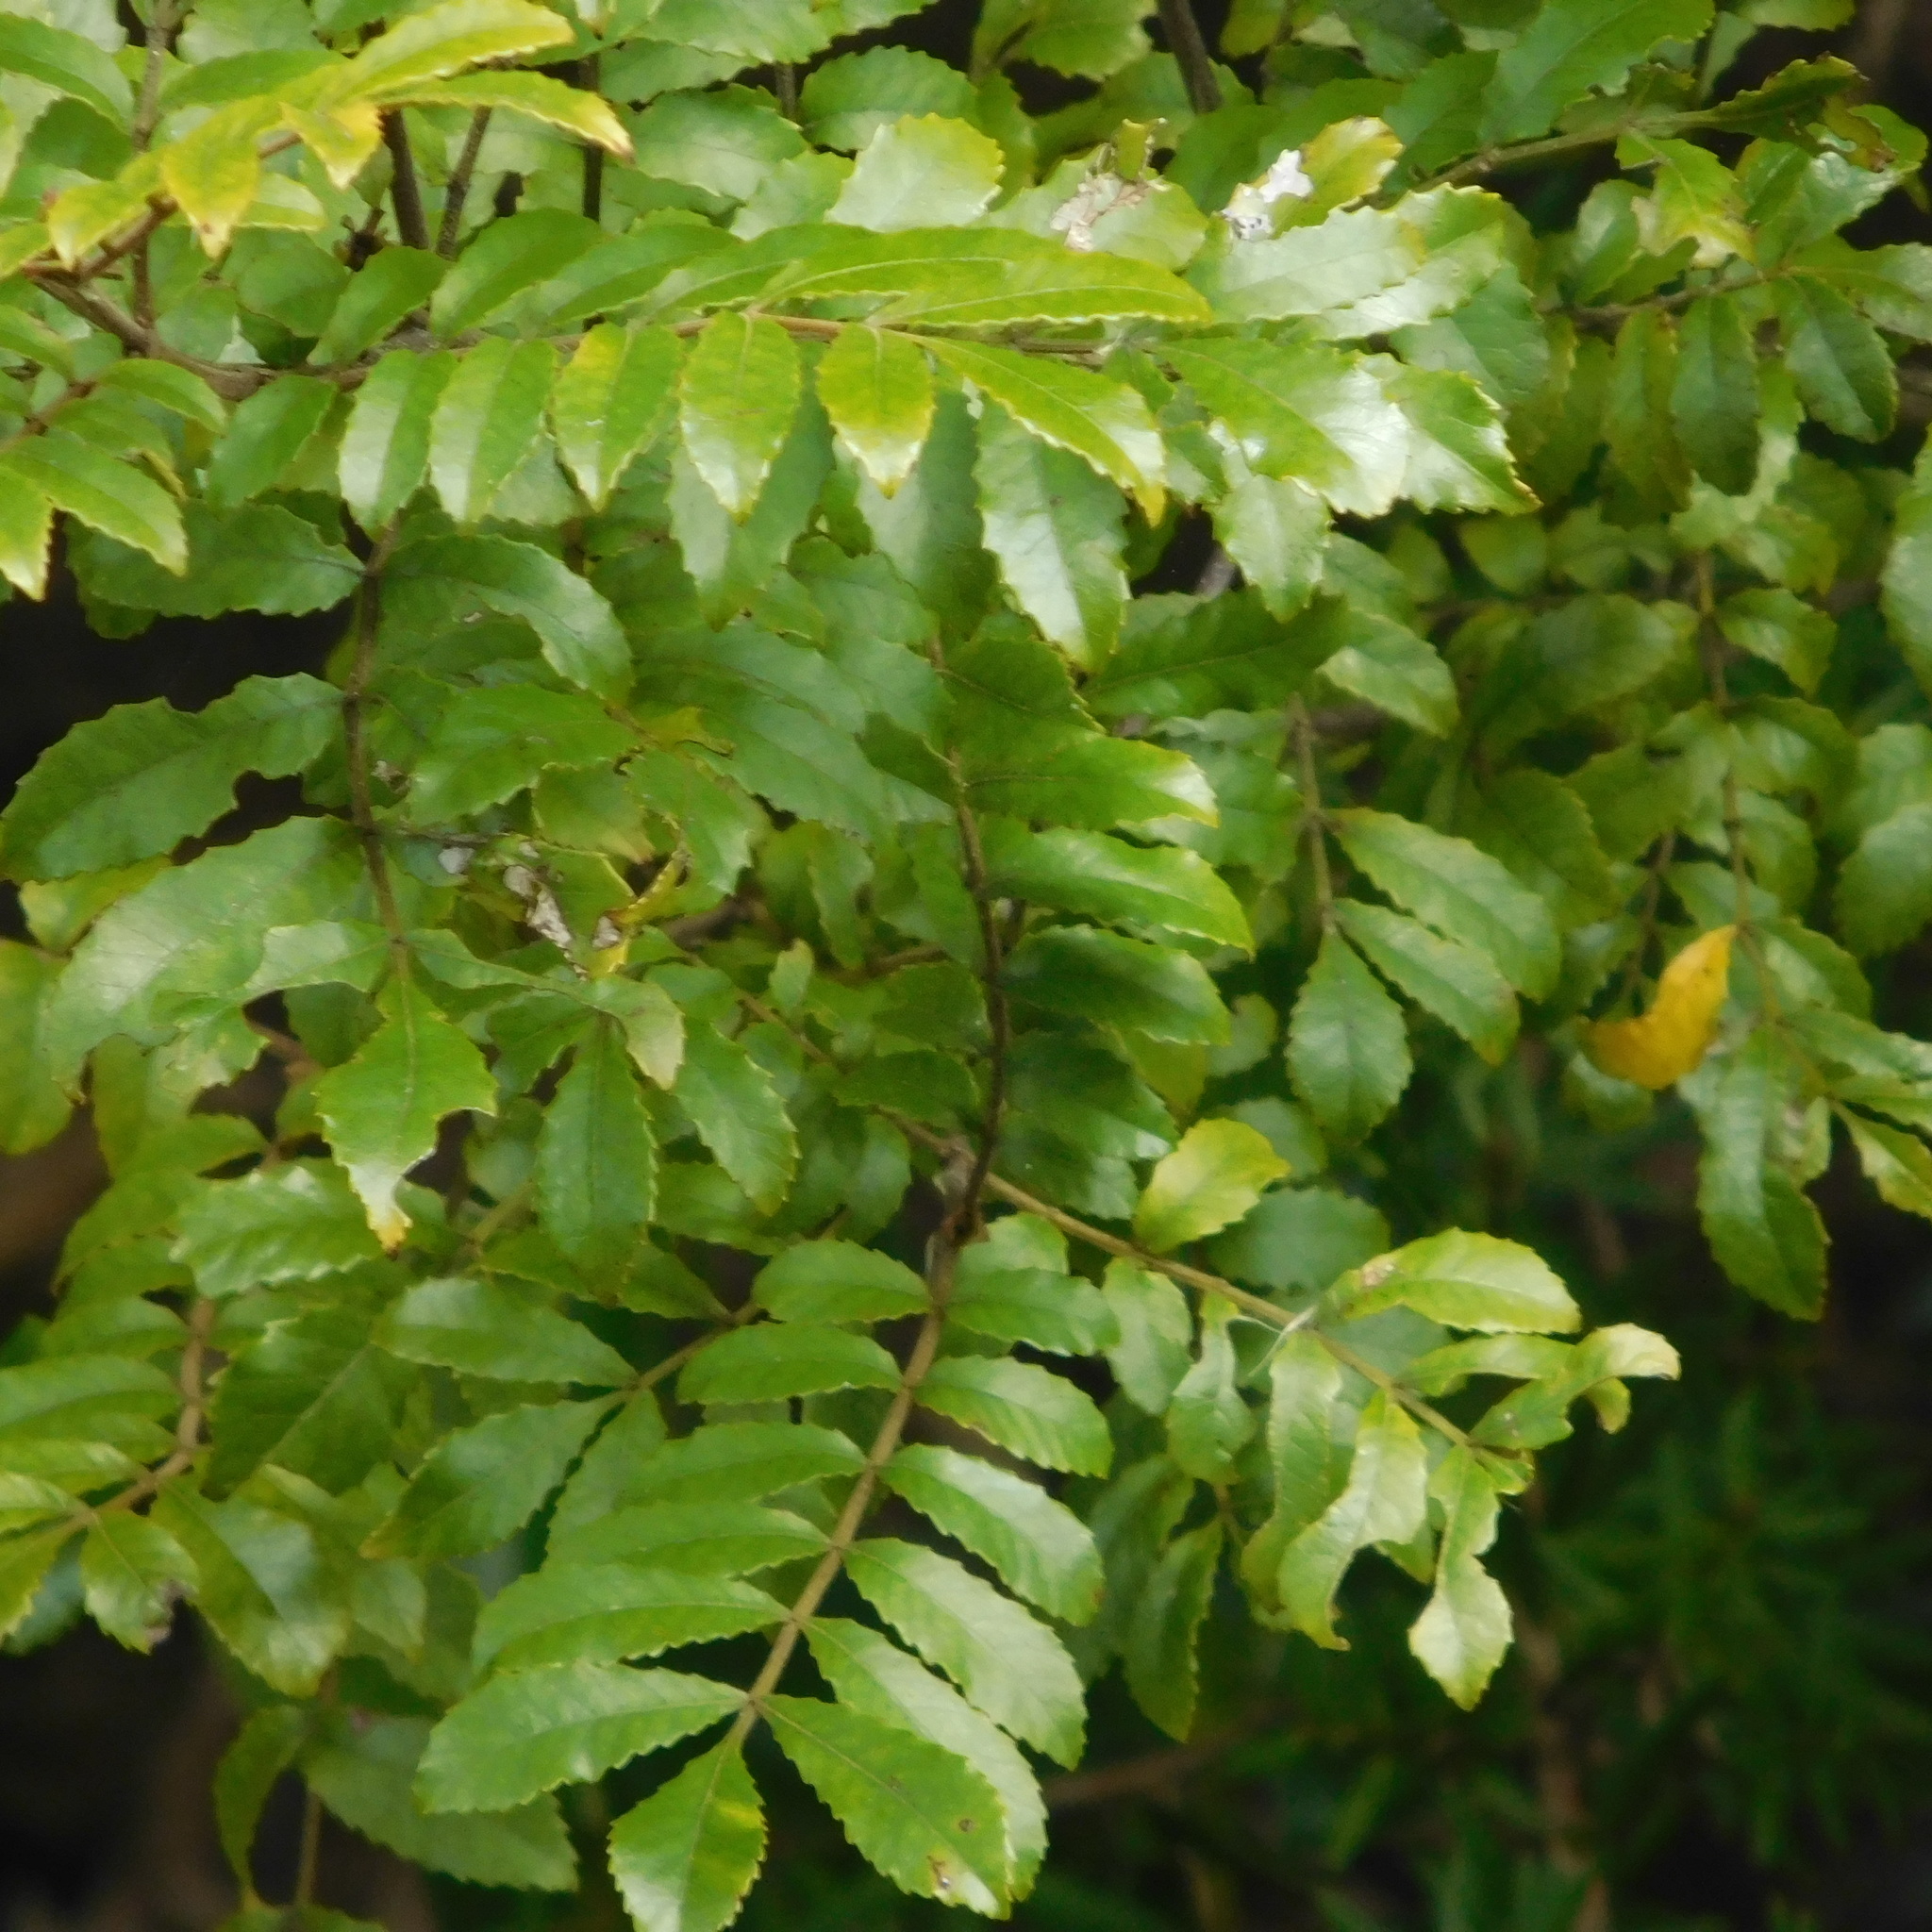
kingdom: Plantae
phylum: Tracheophyta
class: Magnoliopsida
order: Oxalidales
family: Cunoniaceae
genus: Pterophylla
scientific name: Pterophylla sylvicola
